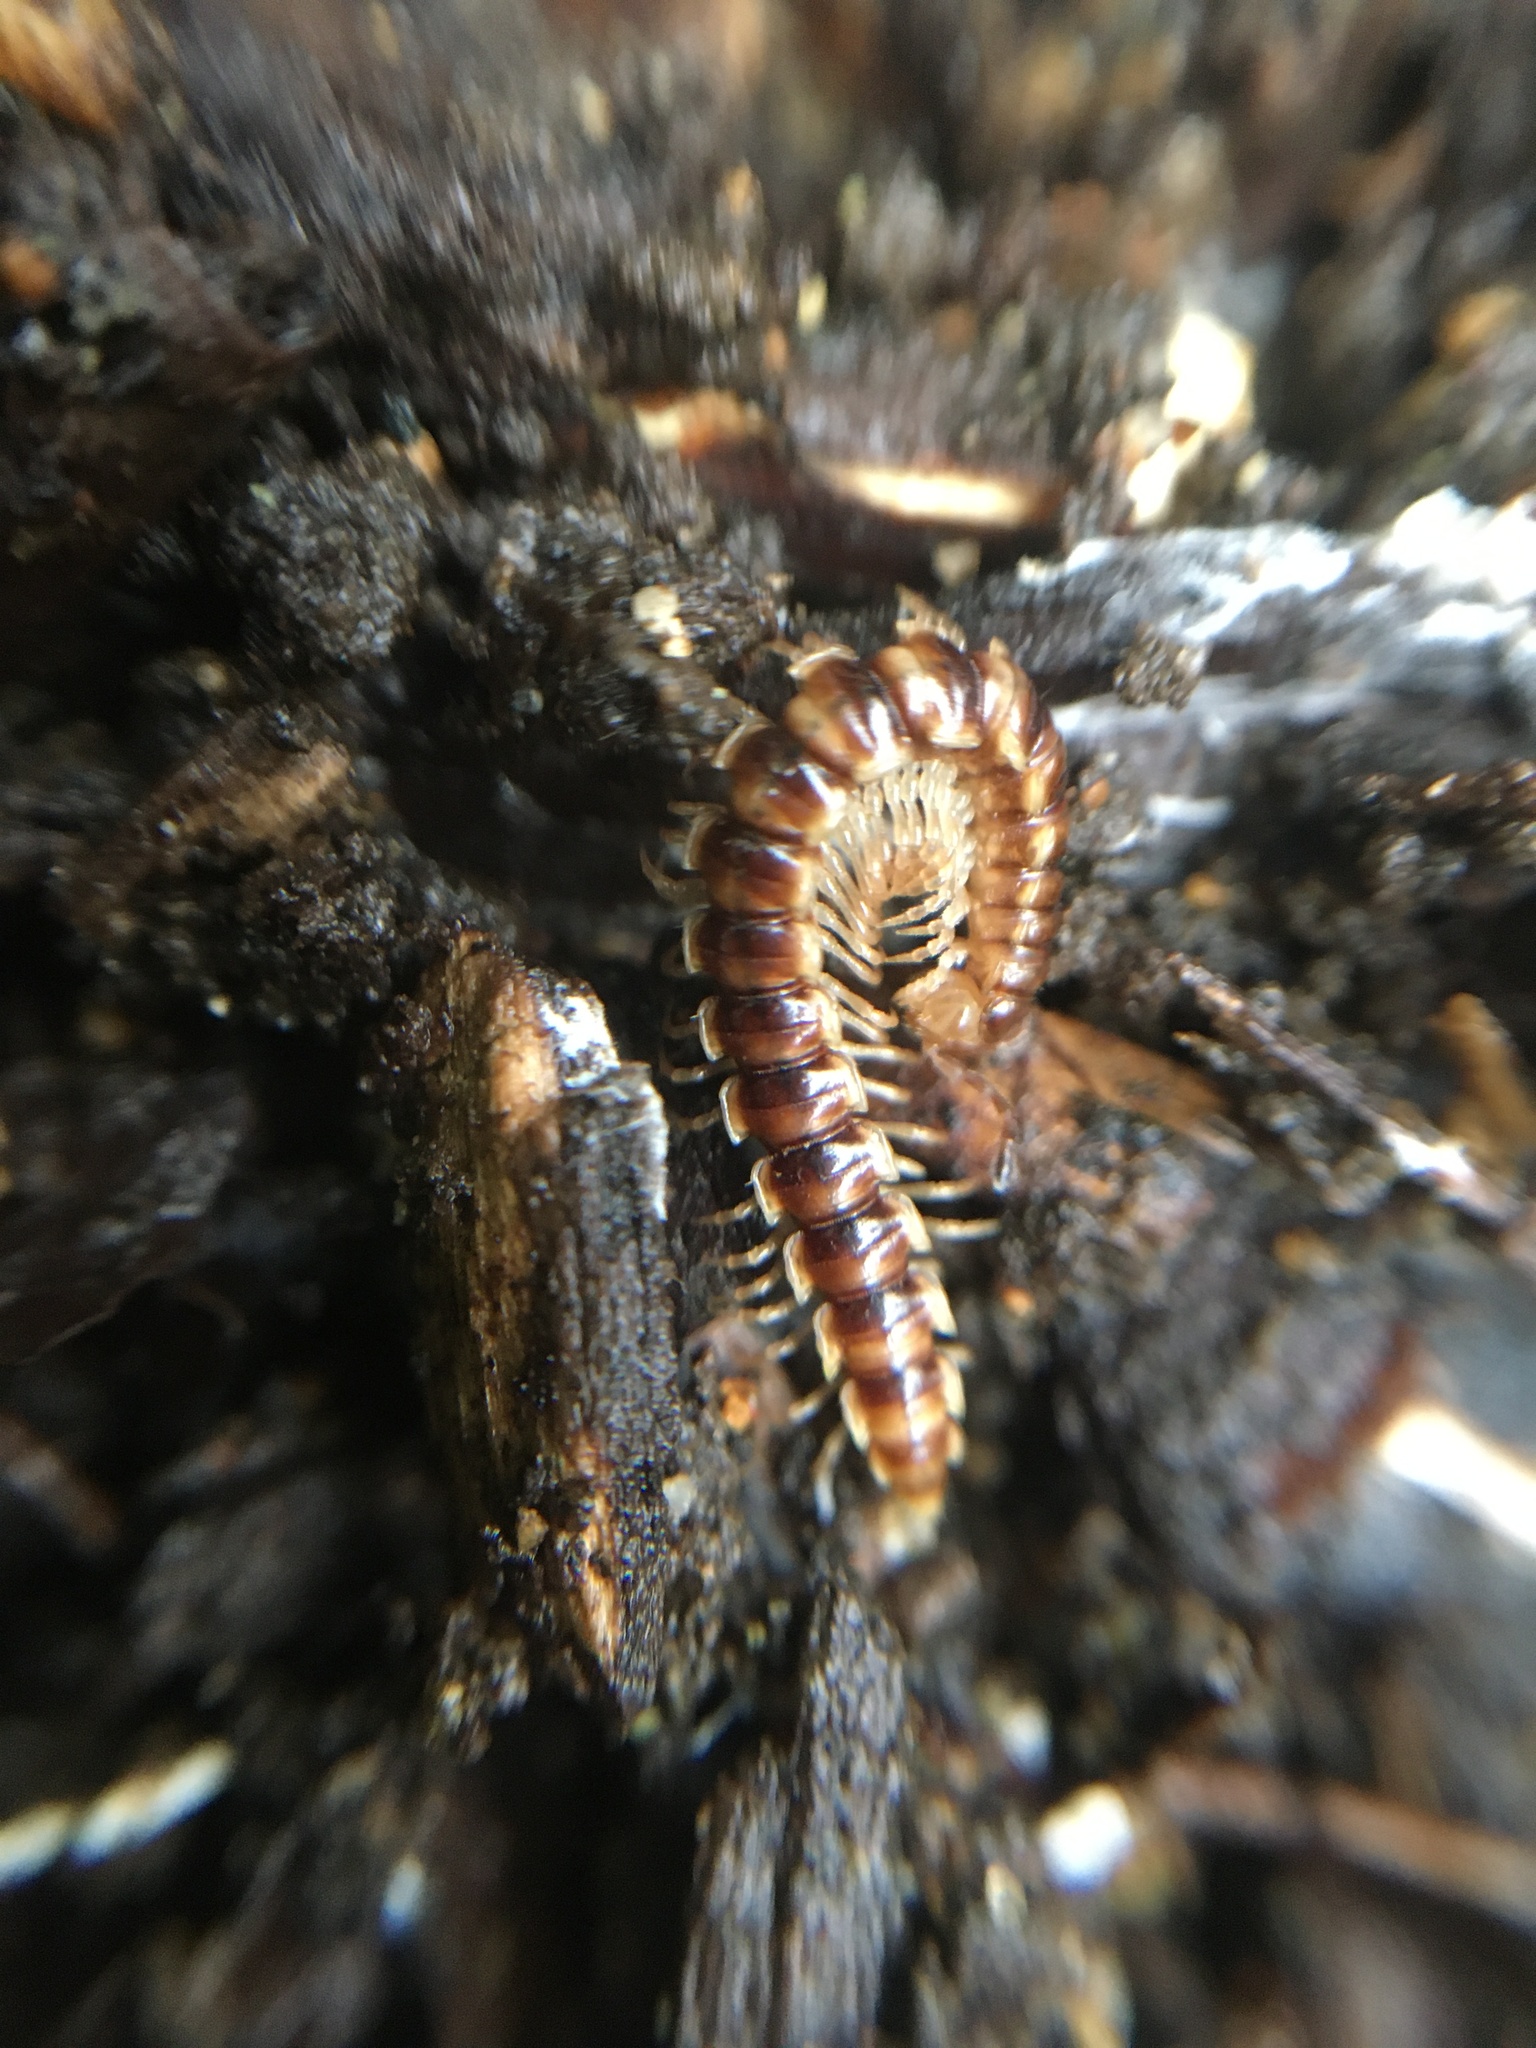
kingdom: Animalia
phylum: Arthropoda
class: Diplopoda
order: Polydesmida
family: Paradoxosomatidae
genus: Oxidus
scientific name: Oxidus gracilis
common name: Greenhouse millipede
